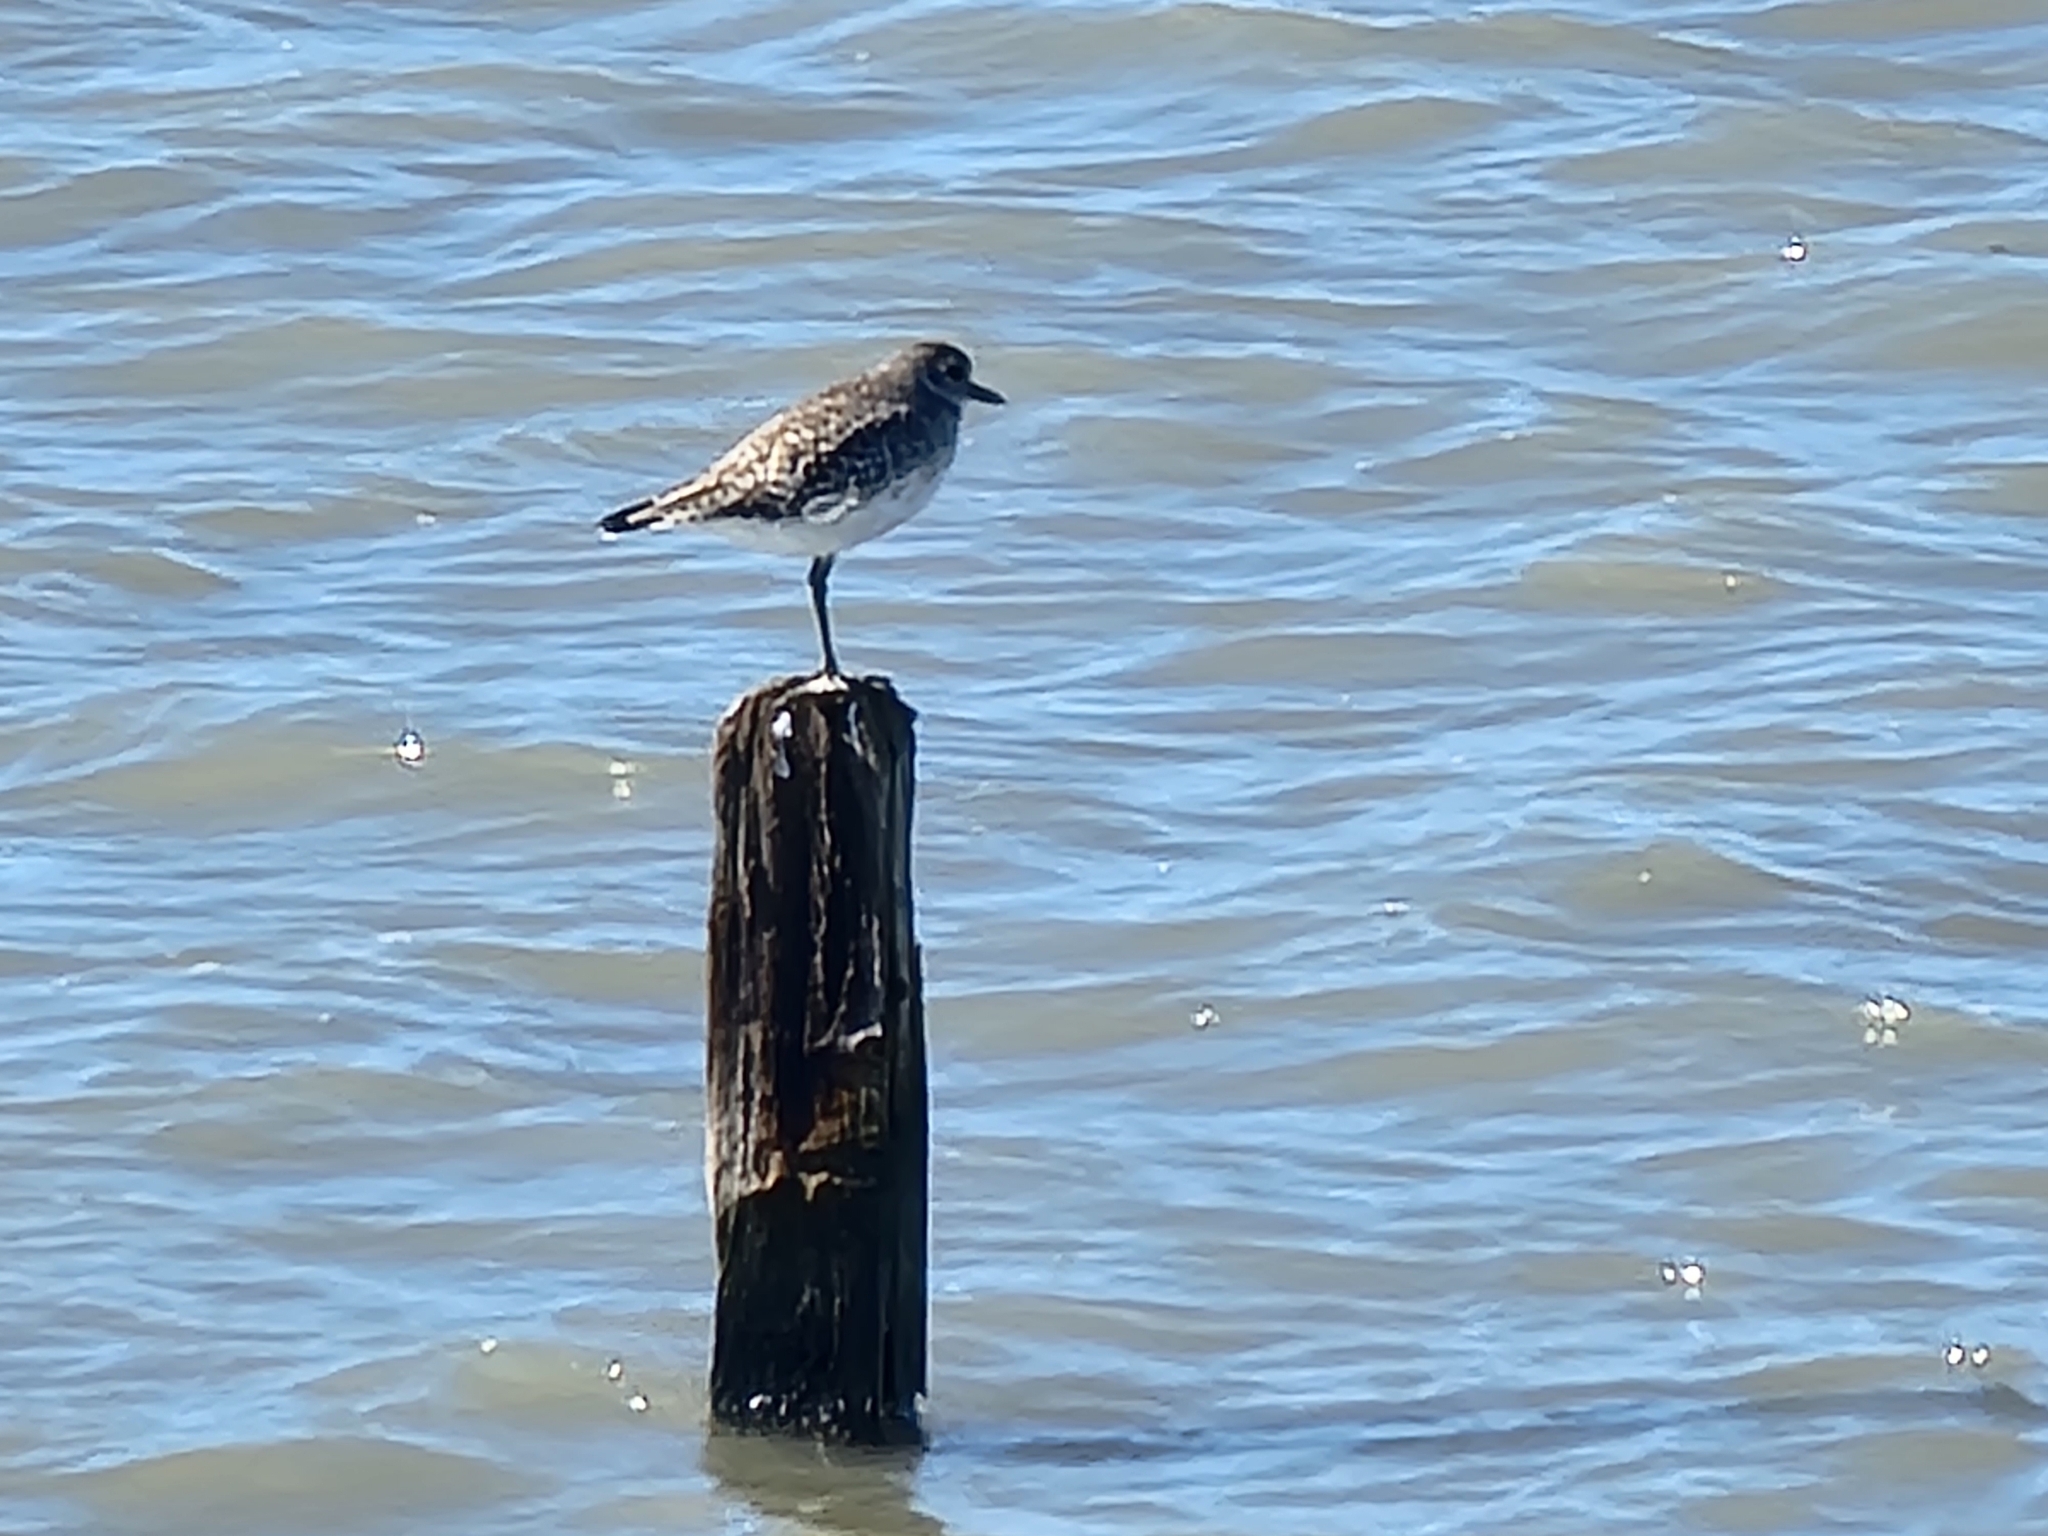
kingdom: Animalia
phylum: Chordata
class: Aves
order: Charadriiformes
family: Charadriidae
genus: Pluvialis
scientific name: Pluvialis squatarola
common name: Grey plover
